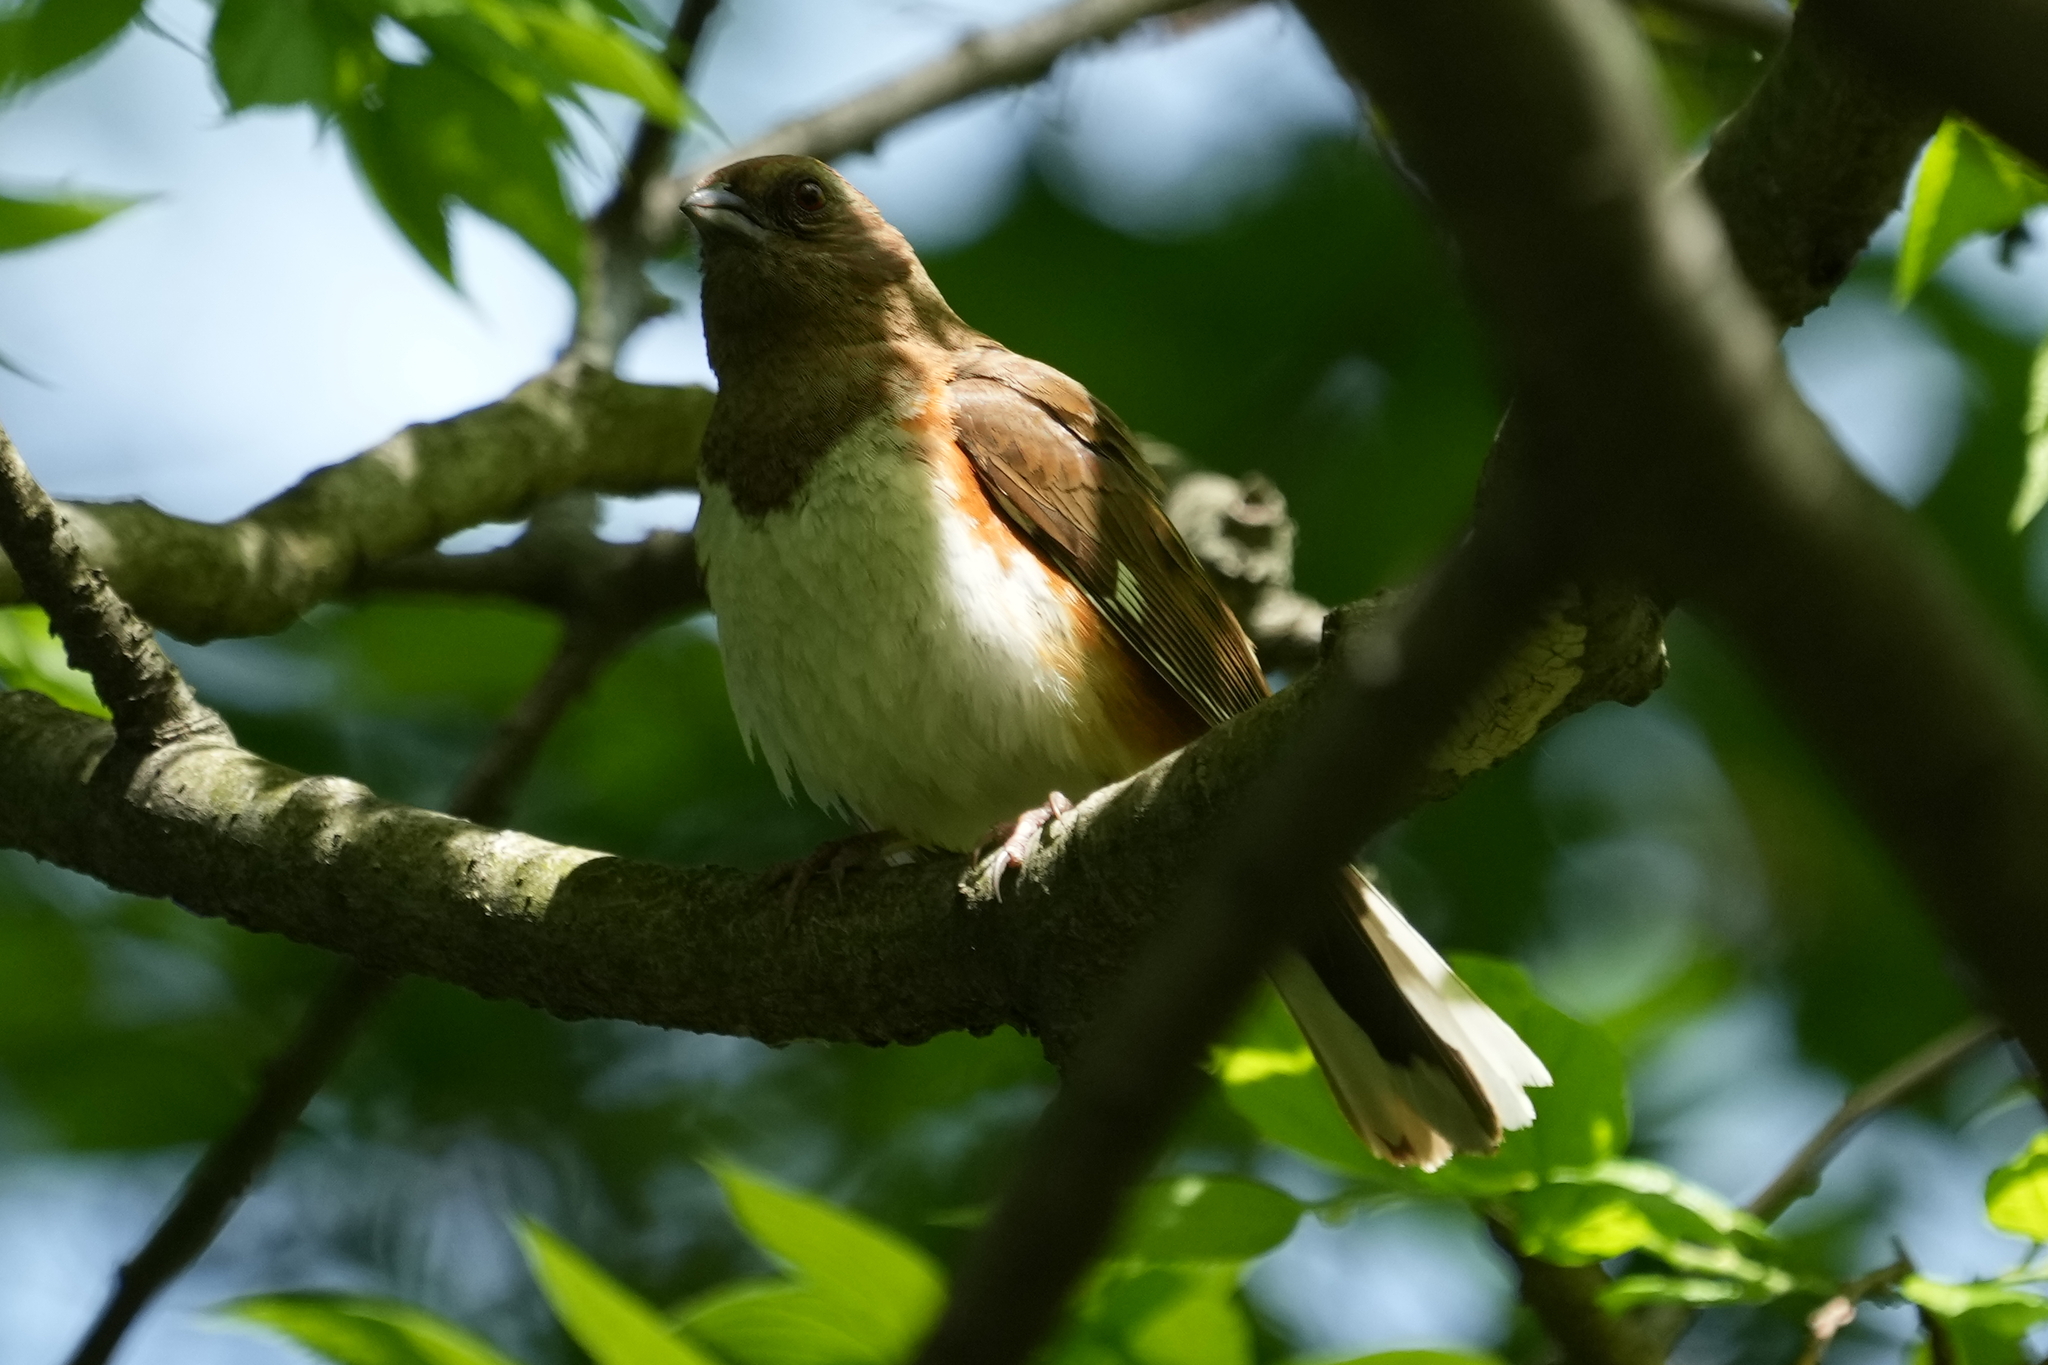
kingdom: Animalia
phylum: Chordata
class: Aves
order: Passeriformes
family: Passerellidae
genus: Pipilo
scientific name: Pipilo erythrophthalmus
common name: Eastern towhee
